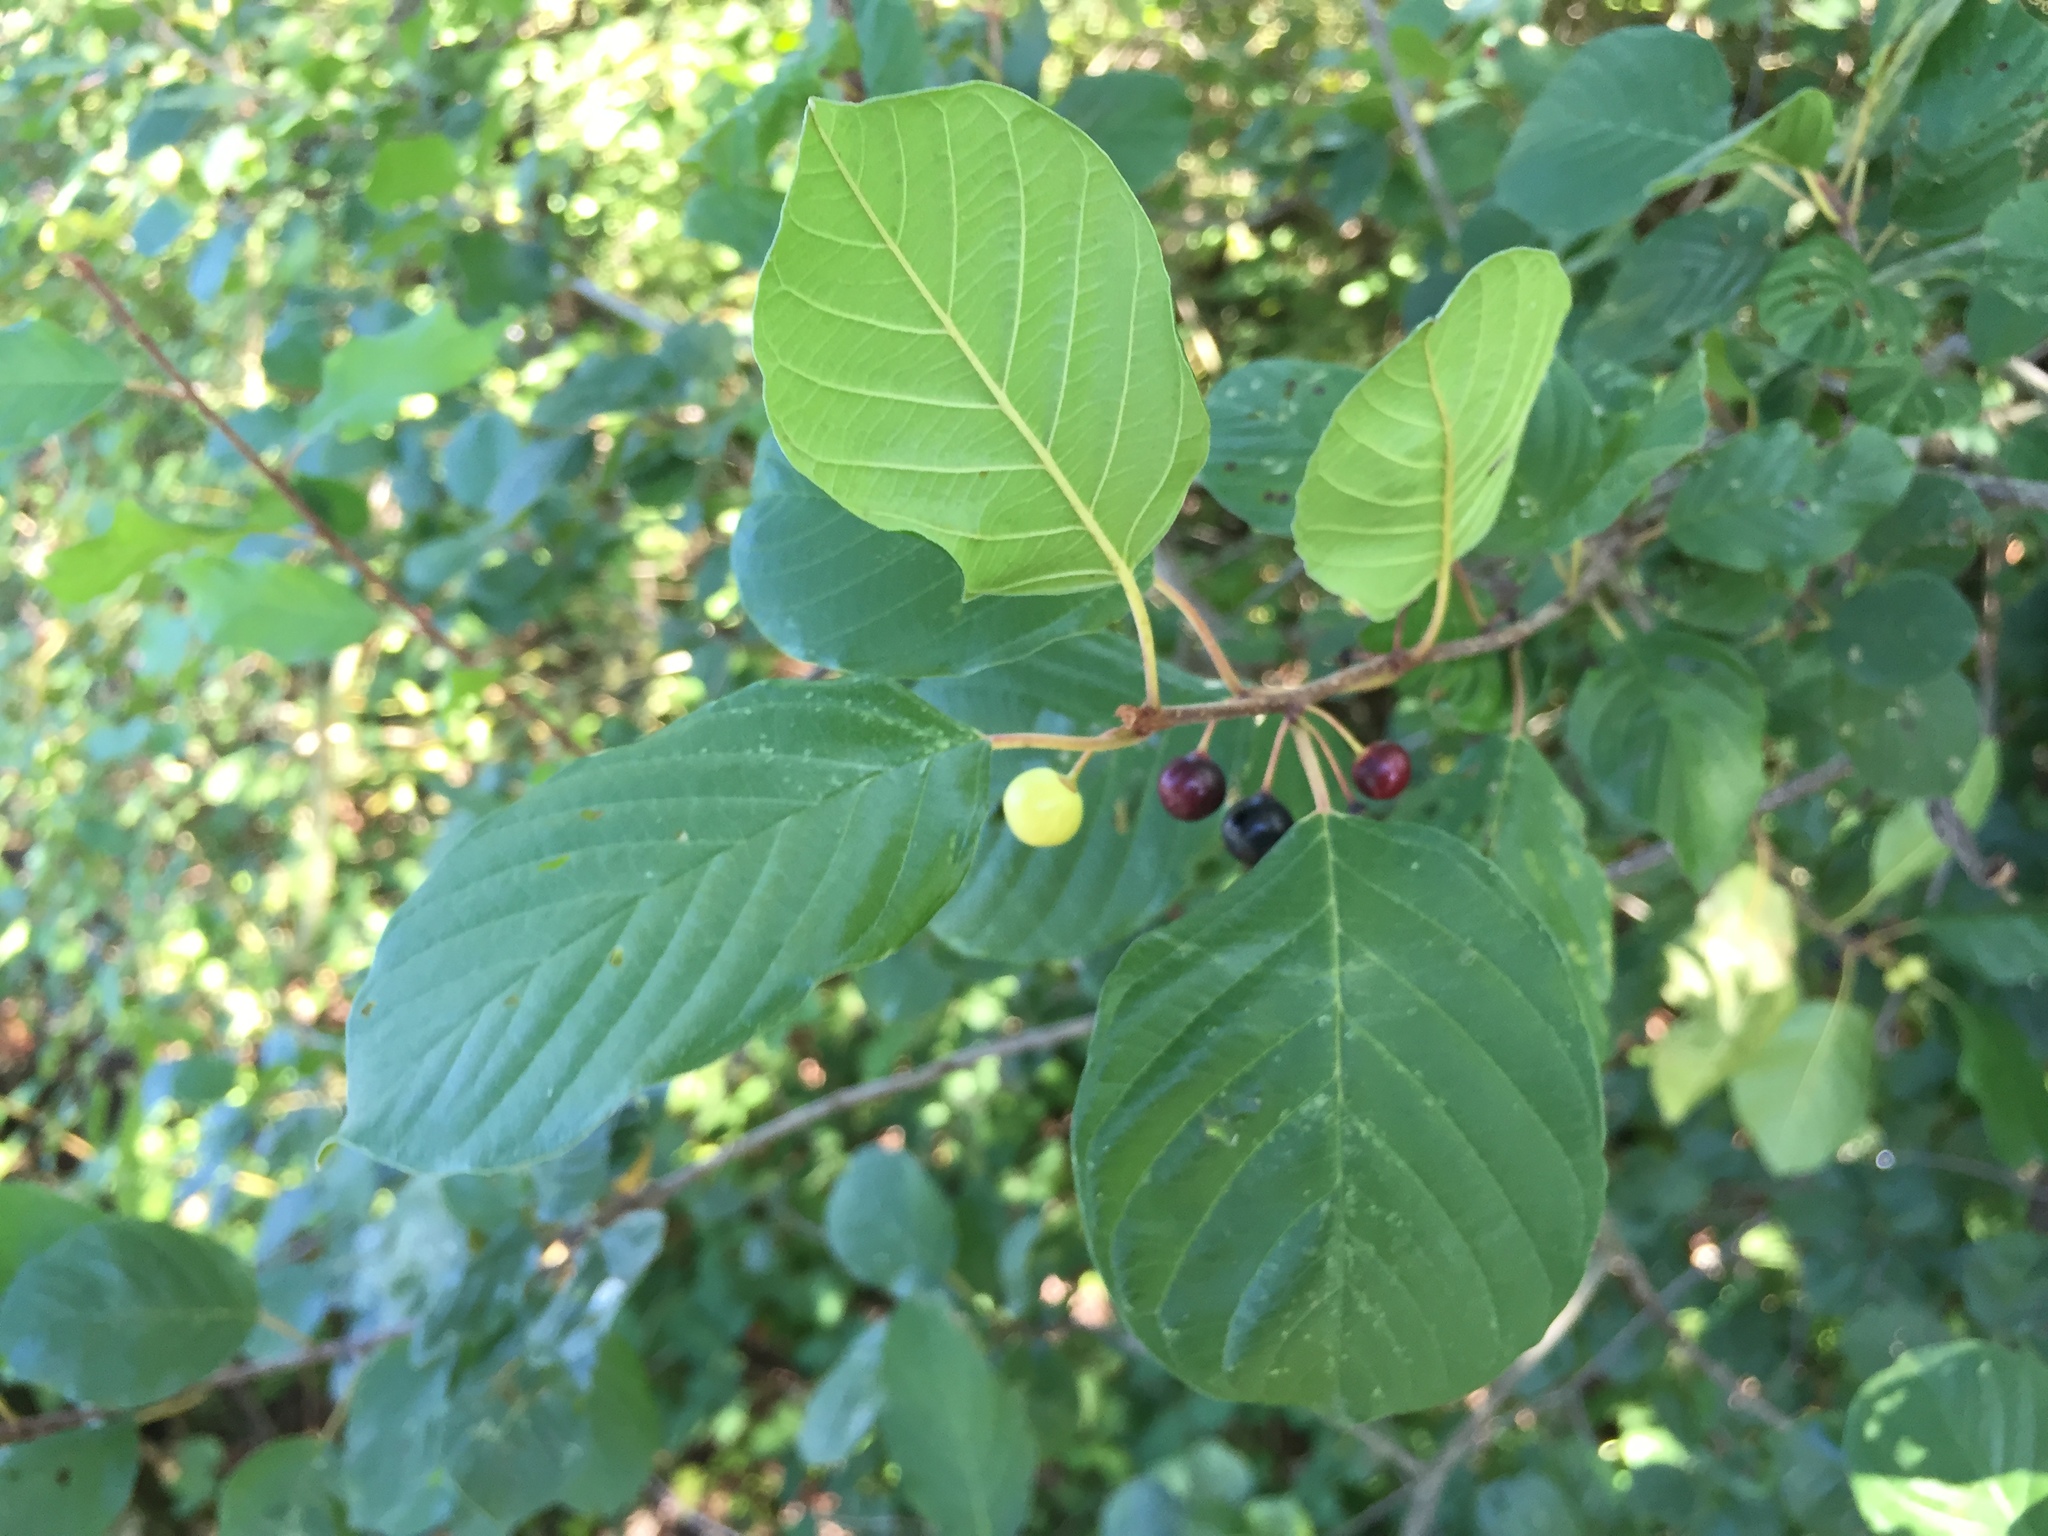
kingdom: Plantae
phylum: Tracheophyta
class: Magnoliopsida
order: Rosales
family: Rhamnaceae
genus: Frangula
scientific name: Frangula alnus
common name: Alder buckthorn
